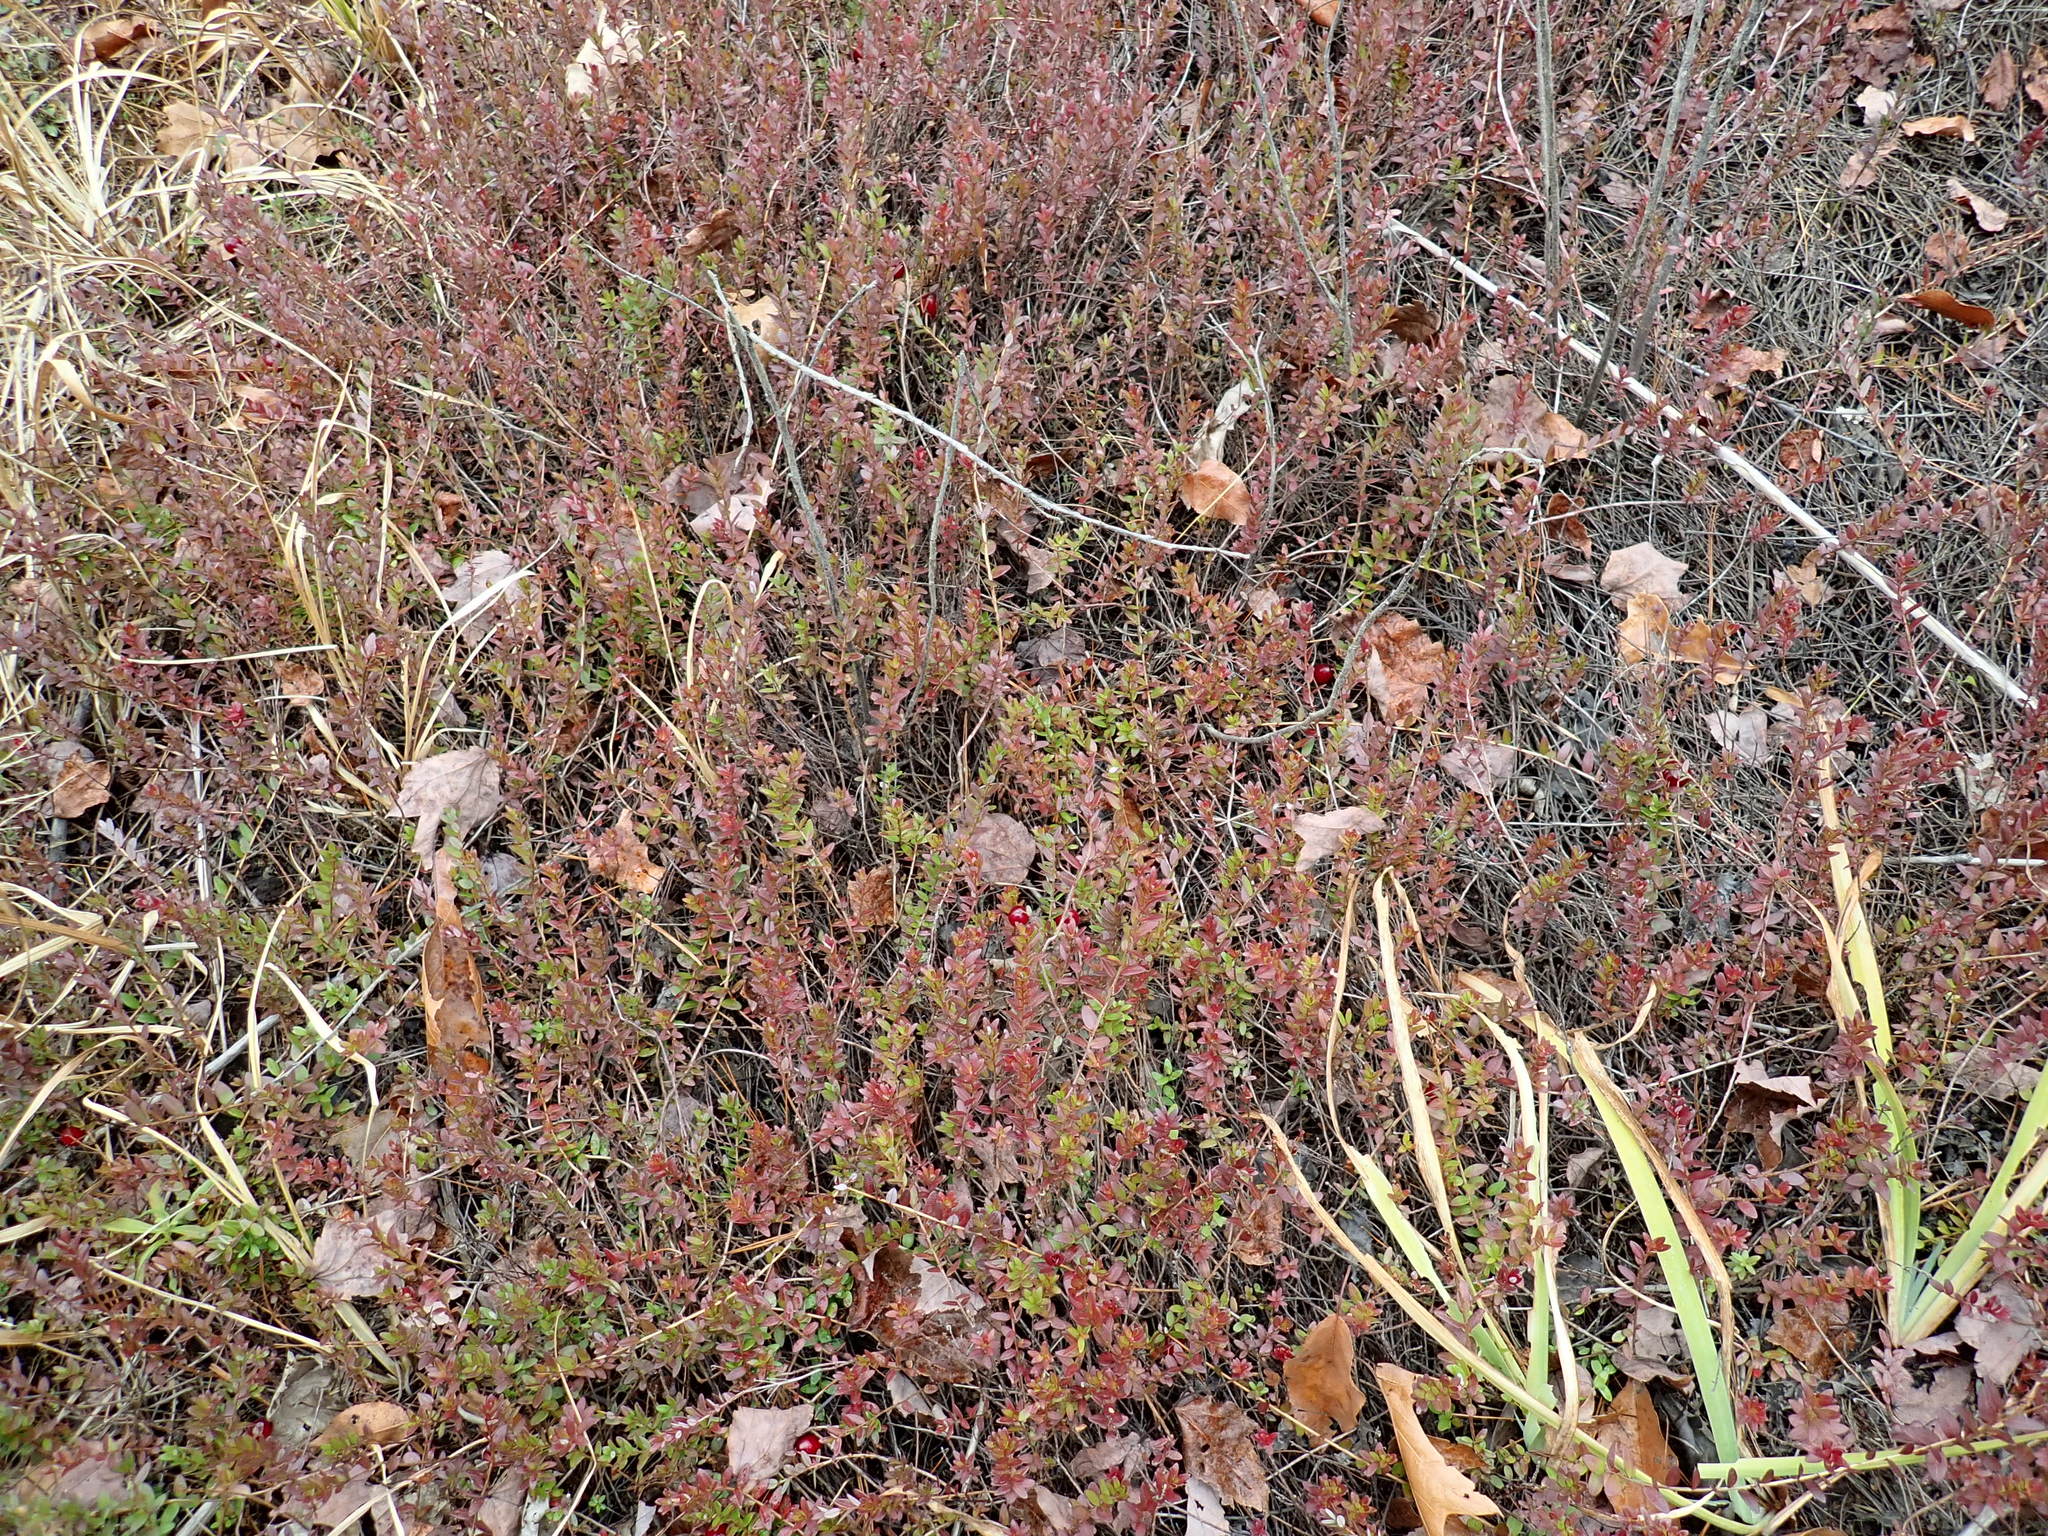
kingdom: Plantae
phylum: Tracheophyta
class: Magnoliopsida
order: Ericales
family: Ericaceae
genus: Vaccinium
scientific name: Vaccinium macrocarpon
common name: American cranberry
